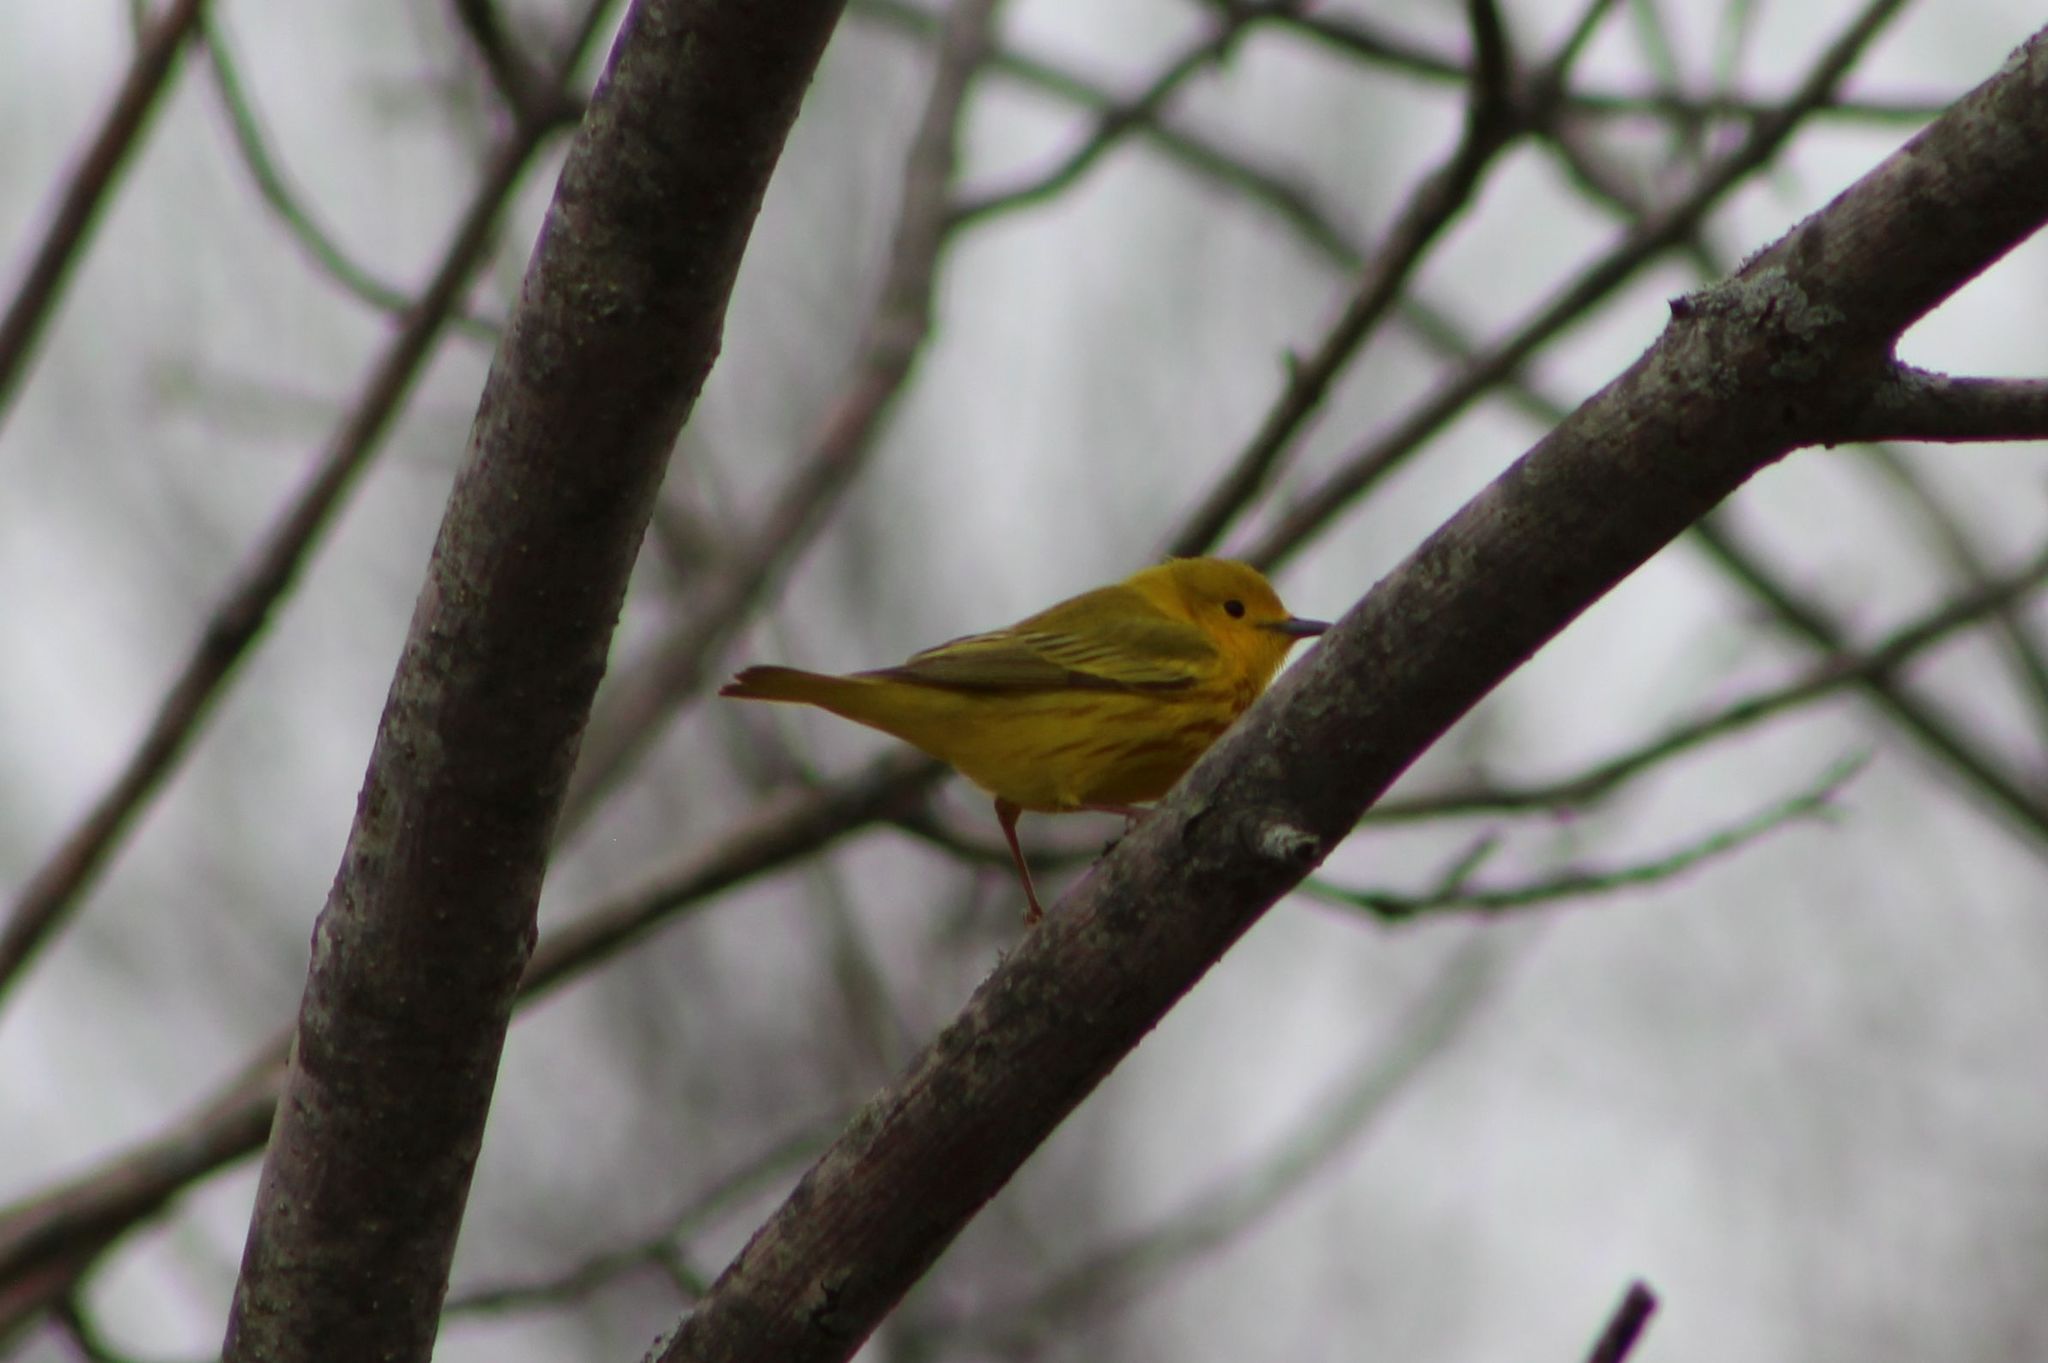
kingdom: Animalia
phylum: Chordata
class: Aves
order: Passeriformes
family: Parulidae
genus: Setophaga
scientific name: Setophaga petechia
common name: Yellow warbler
